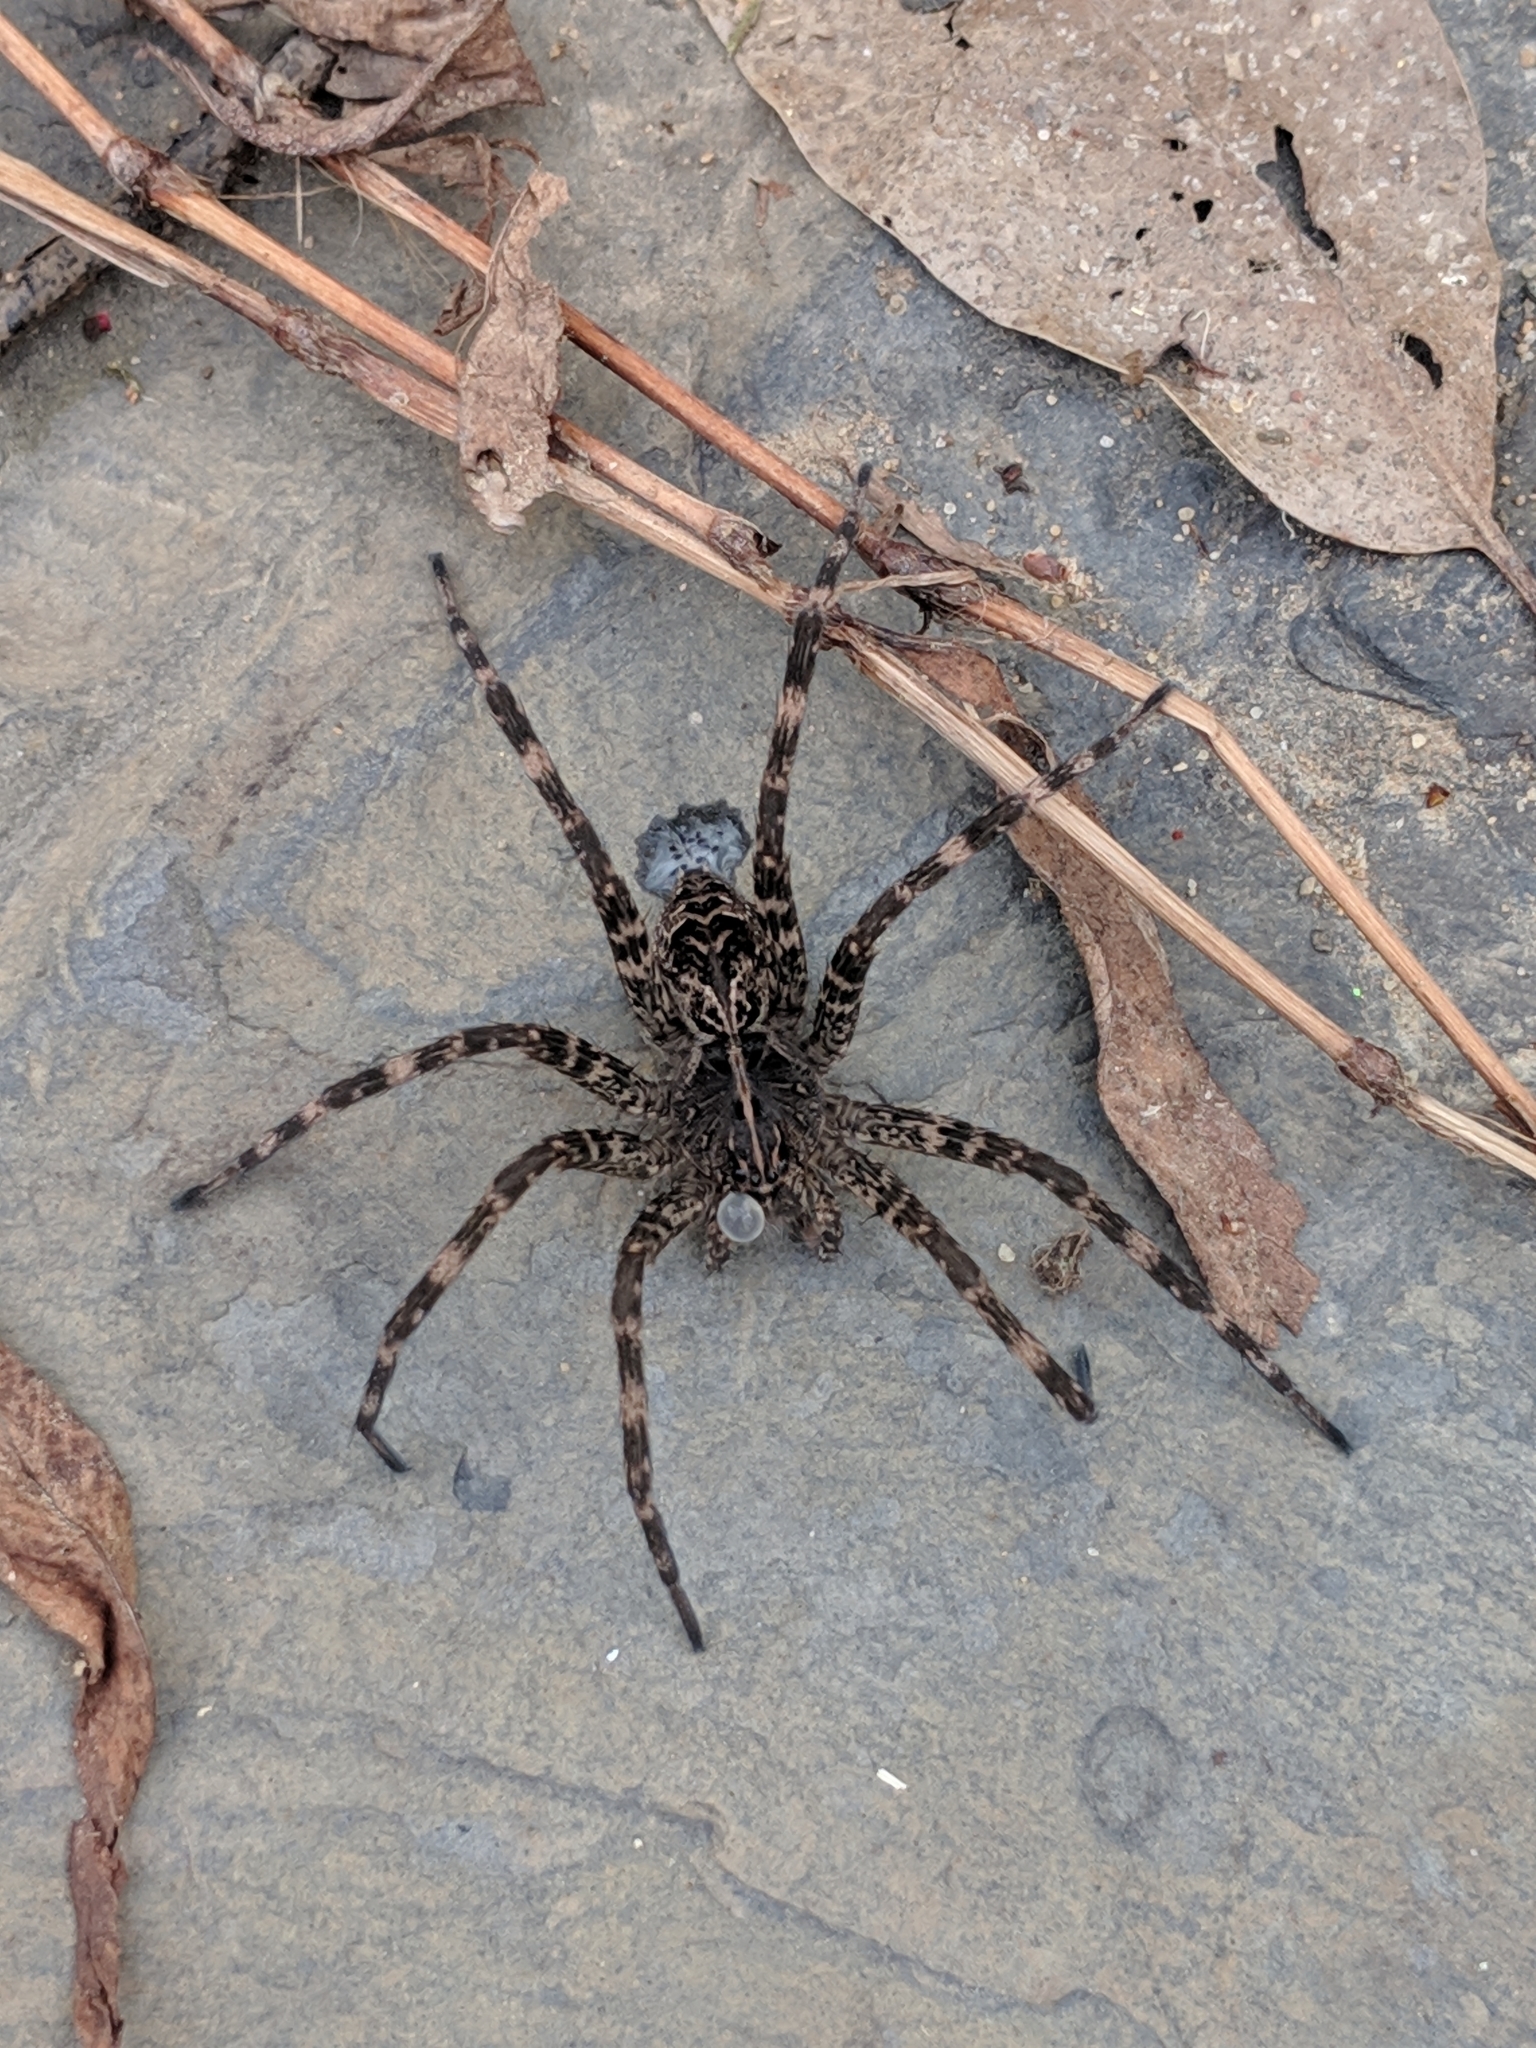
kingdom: Animalia
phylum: Arthropoda
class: Arachnida
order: Araneae
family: Pisauridae
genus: Dolomedes
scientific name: Dolomedes scriptus
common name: Striped fishing spider
